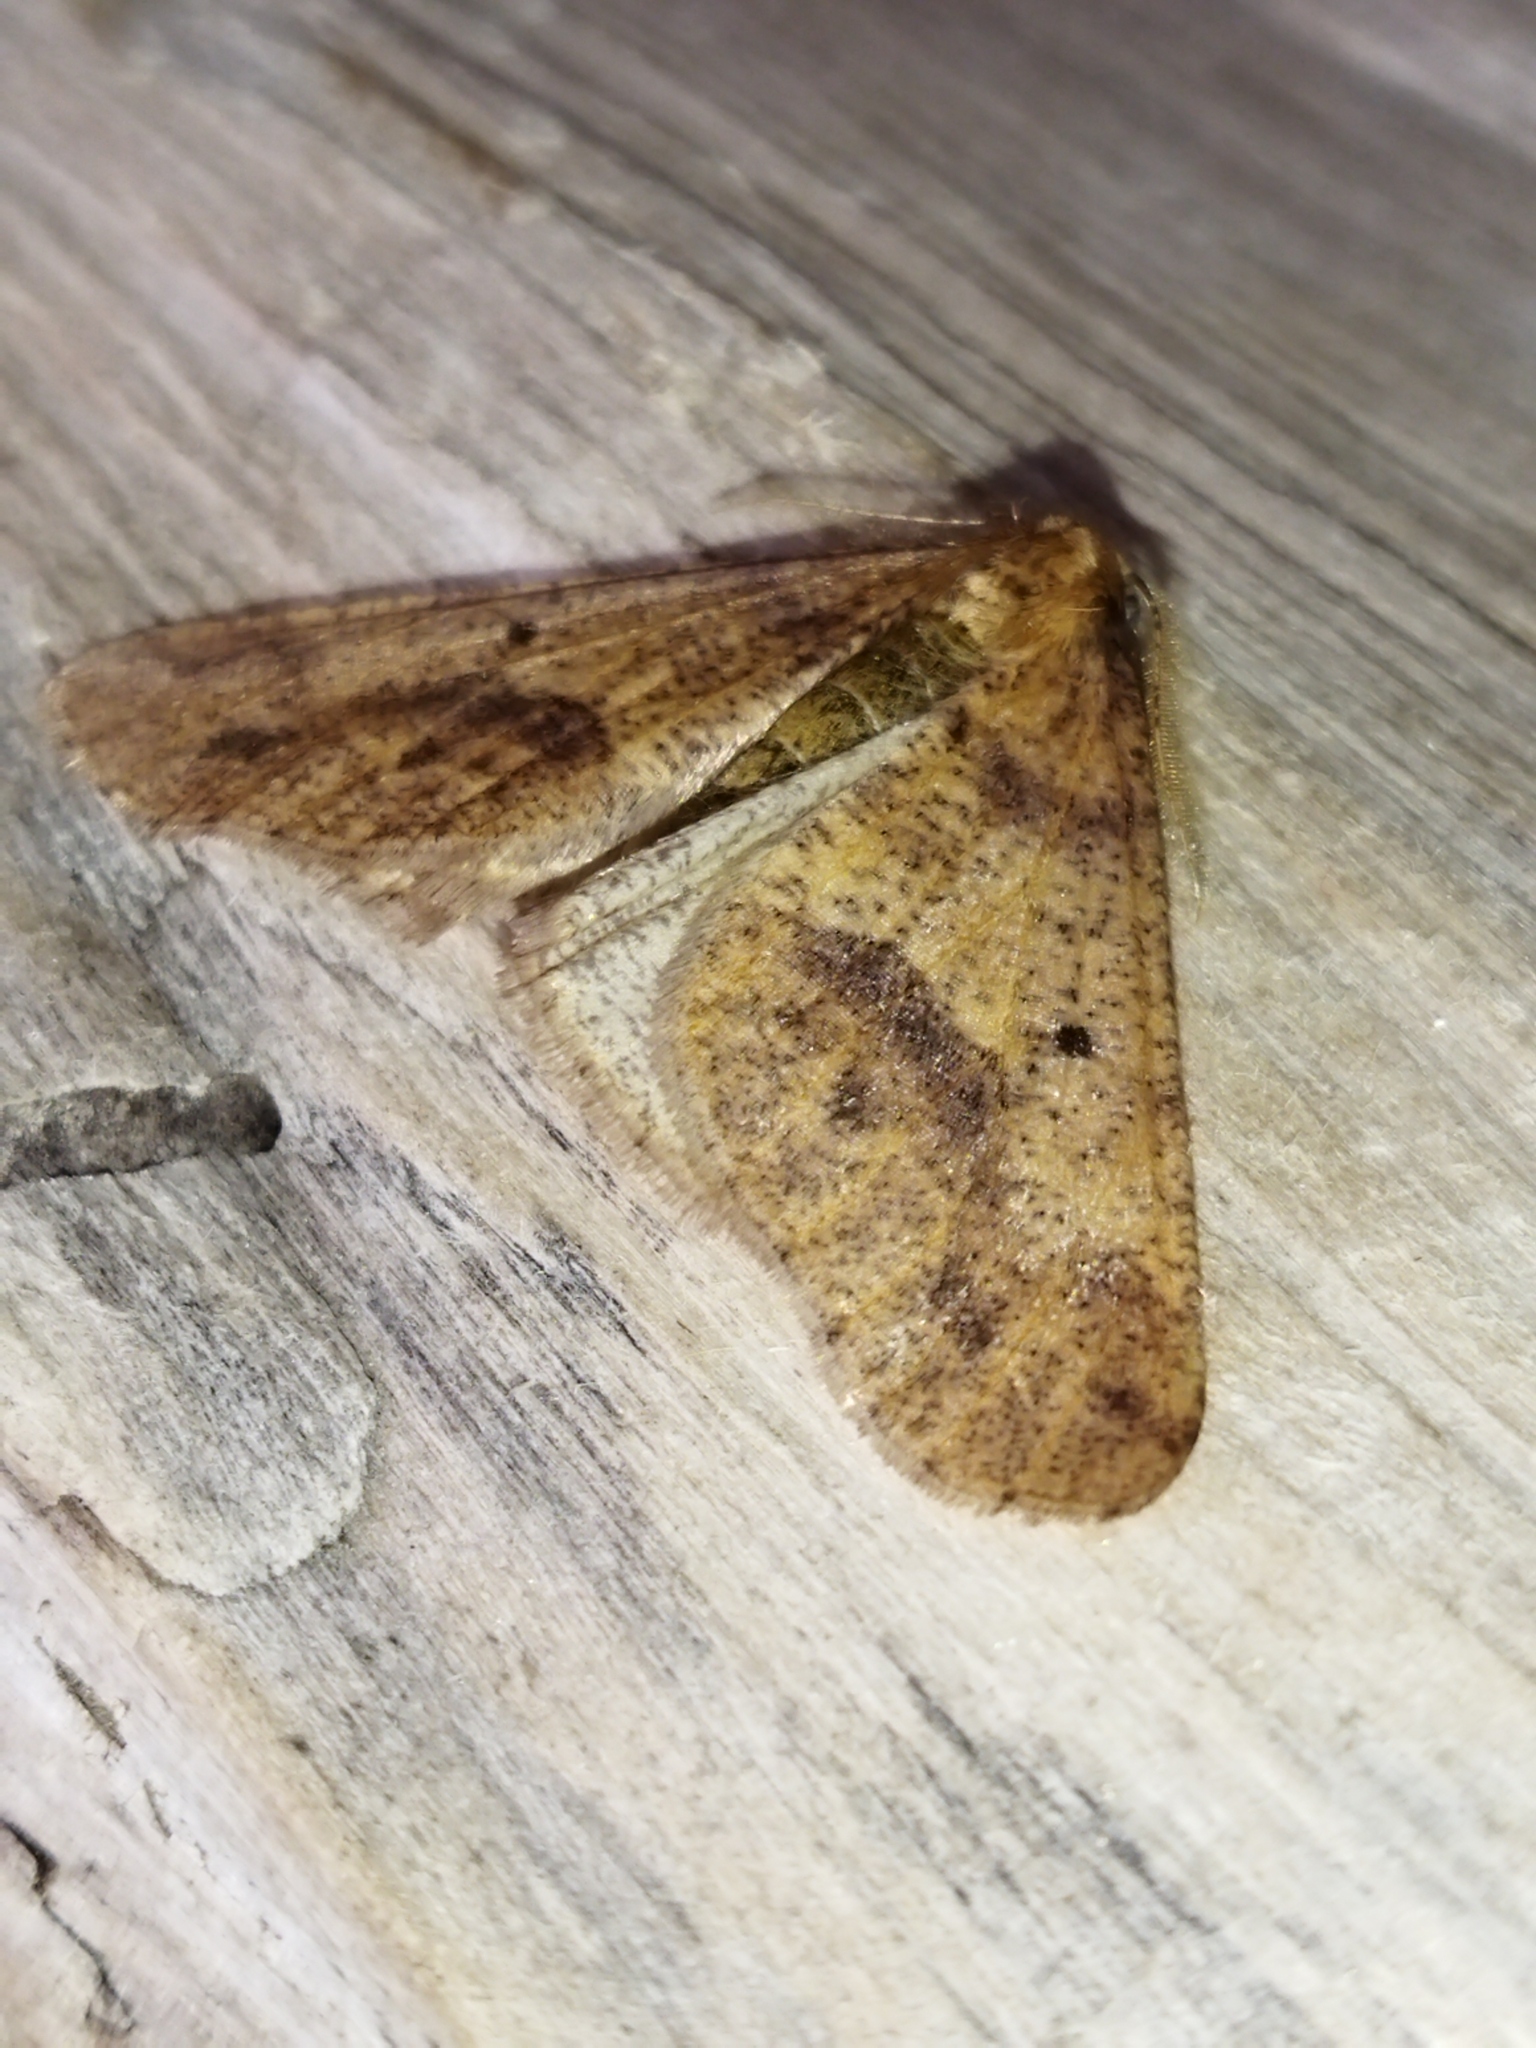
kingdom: Animalia
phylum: Arthropoda
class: Insecta
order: Lepidoptera
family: Geometridae
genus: Erannis
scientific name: Erannis defoliaria
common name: Mottled umber
